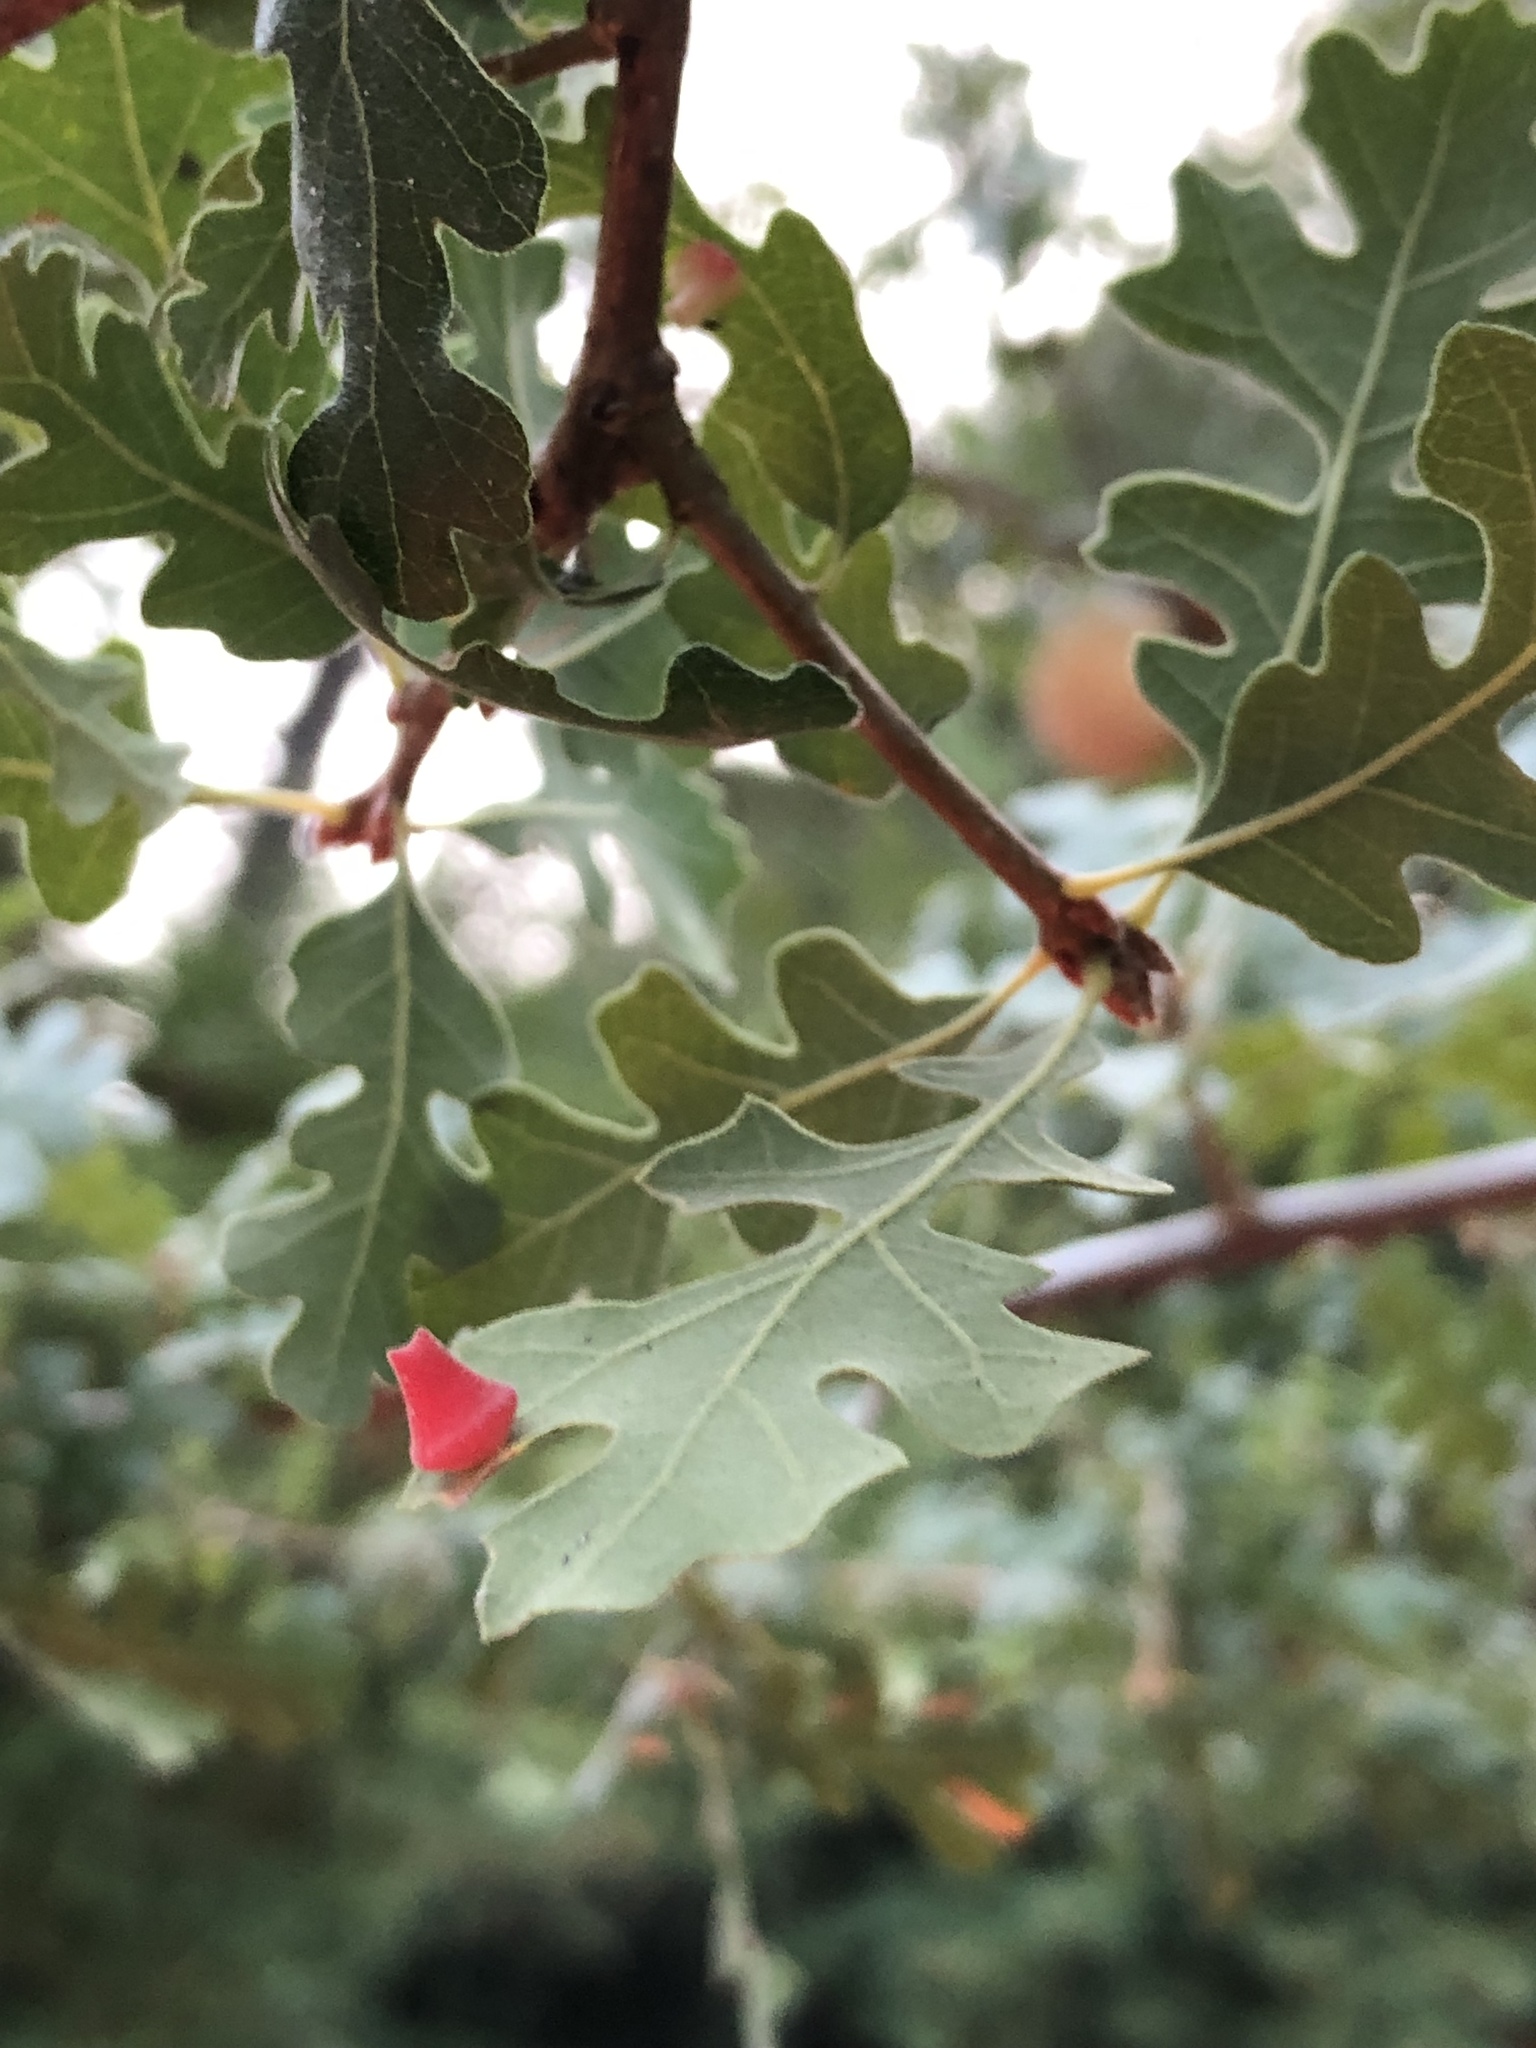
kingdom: Animalia
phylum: Arthropoda
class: Insecta
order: Hymenoptera
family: Cynipidae
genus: Andricus
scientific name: Andricus
